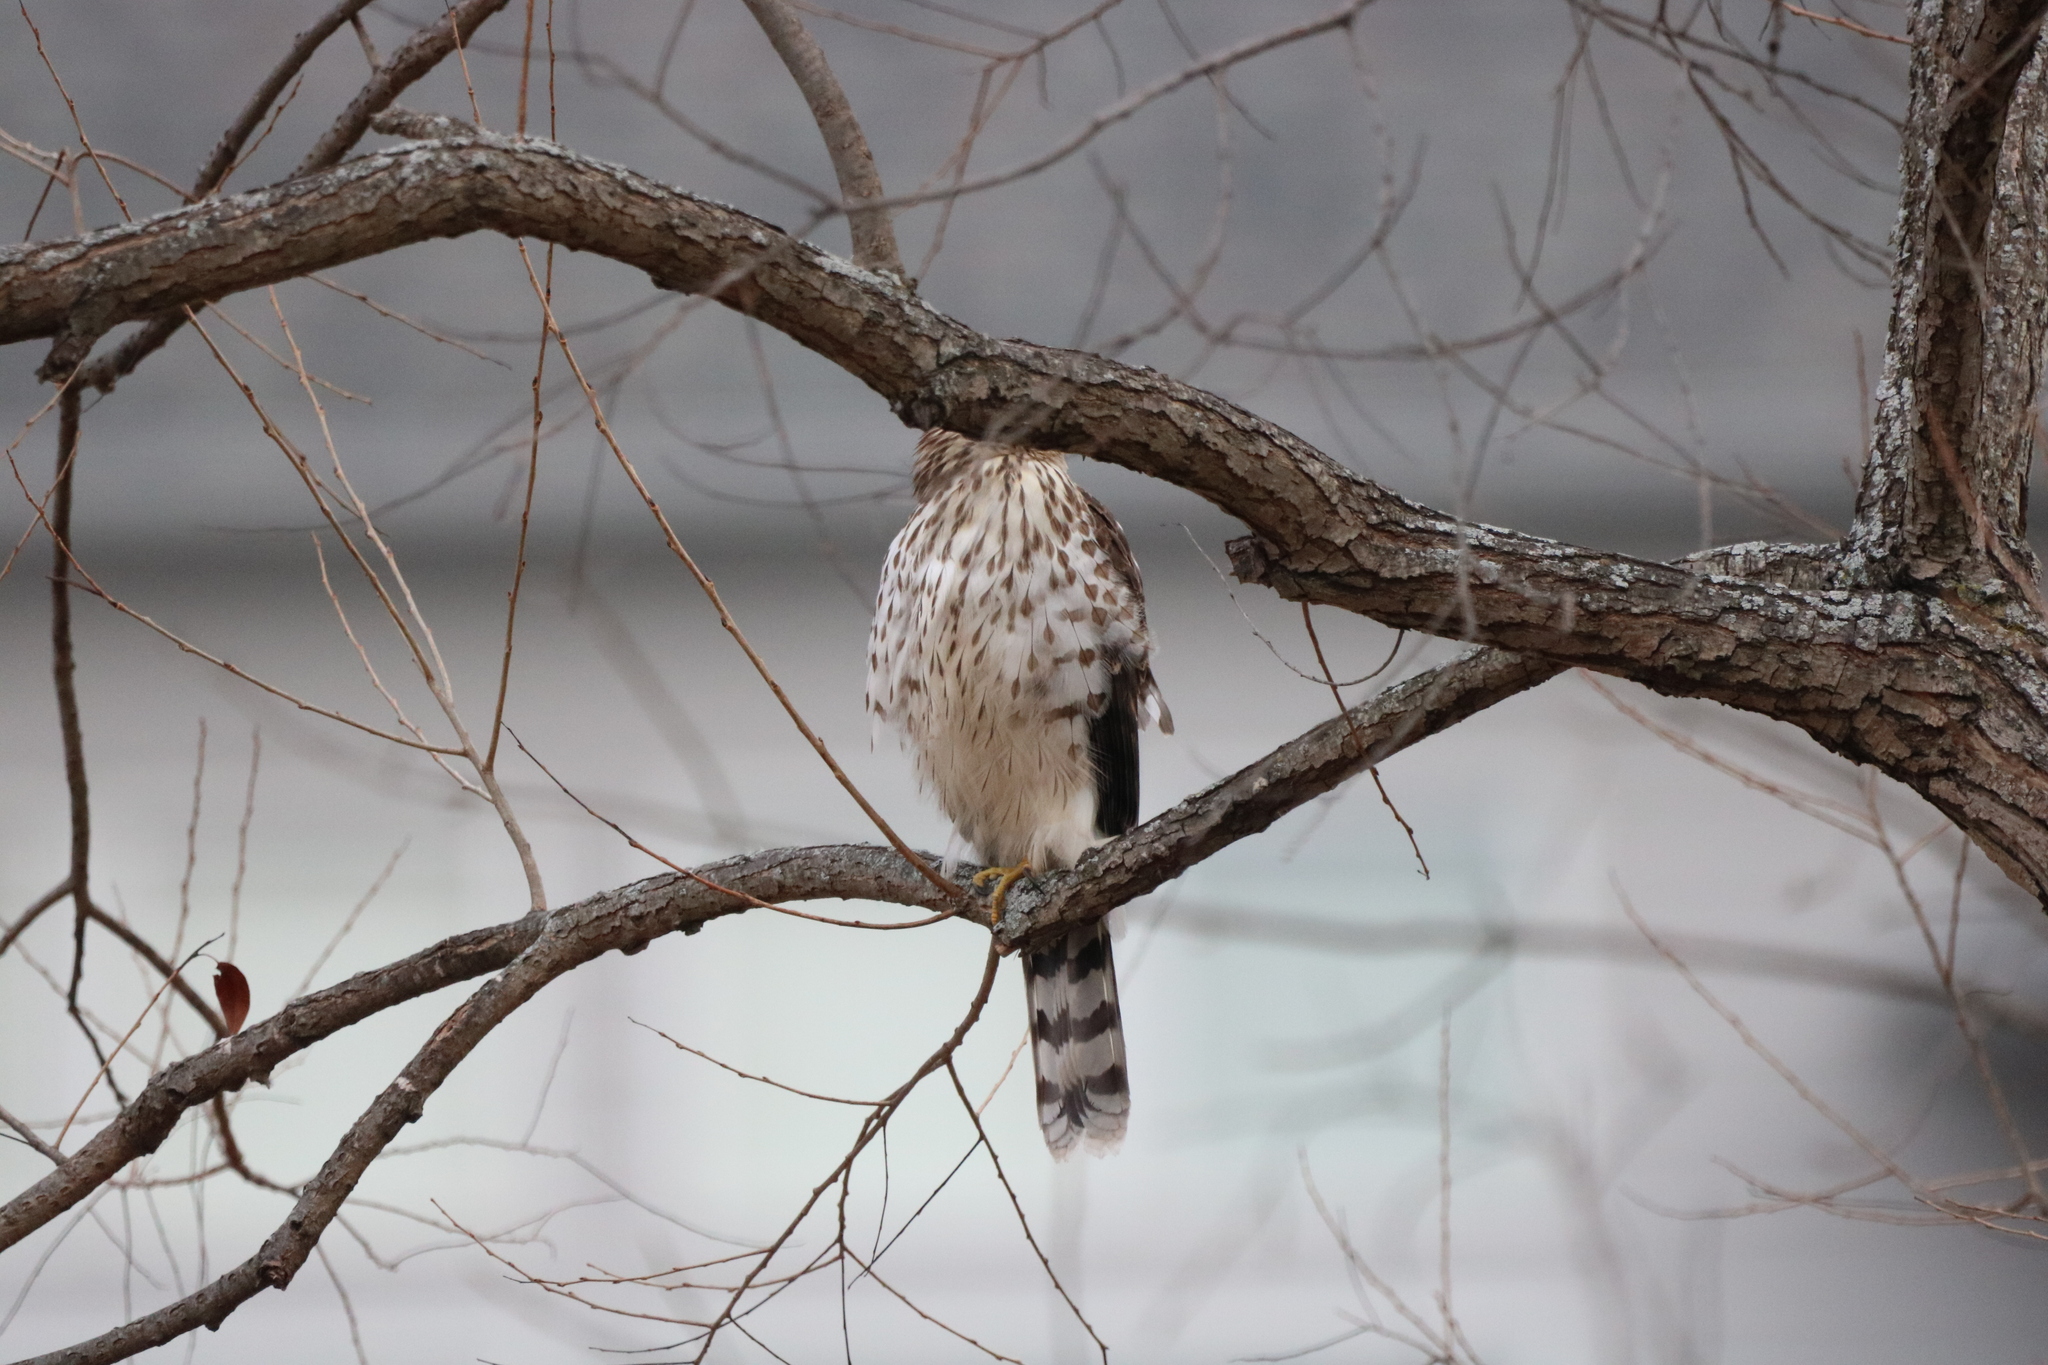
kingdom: Animalia
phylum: Chordata
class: Aves
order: Accipitriformes
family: Accipitridae
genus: Accipiter
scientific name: Accipiter cooperii
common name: Cooper's hawk
